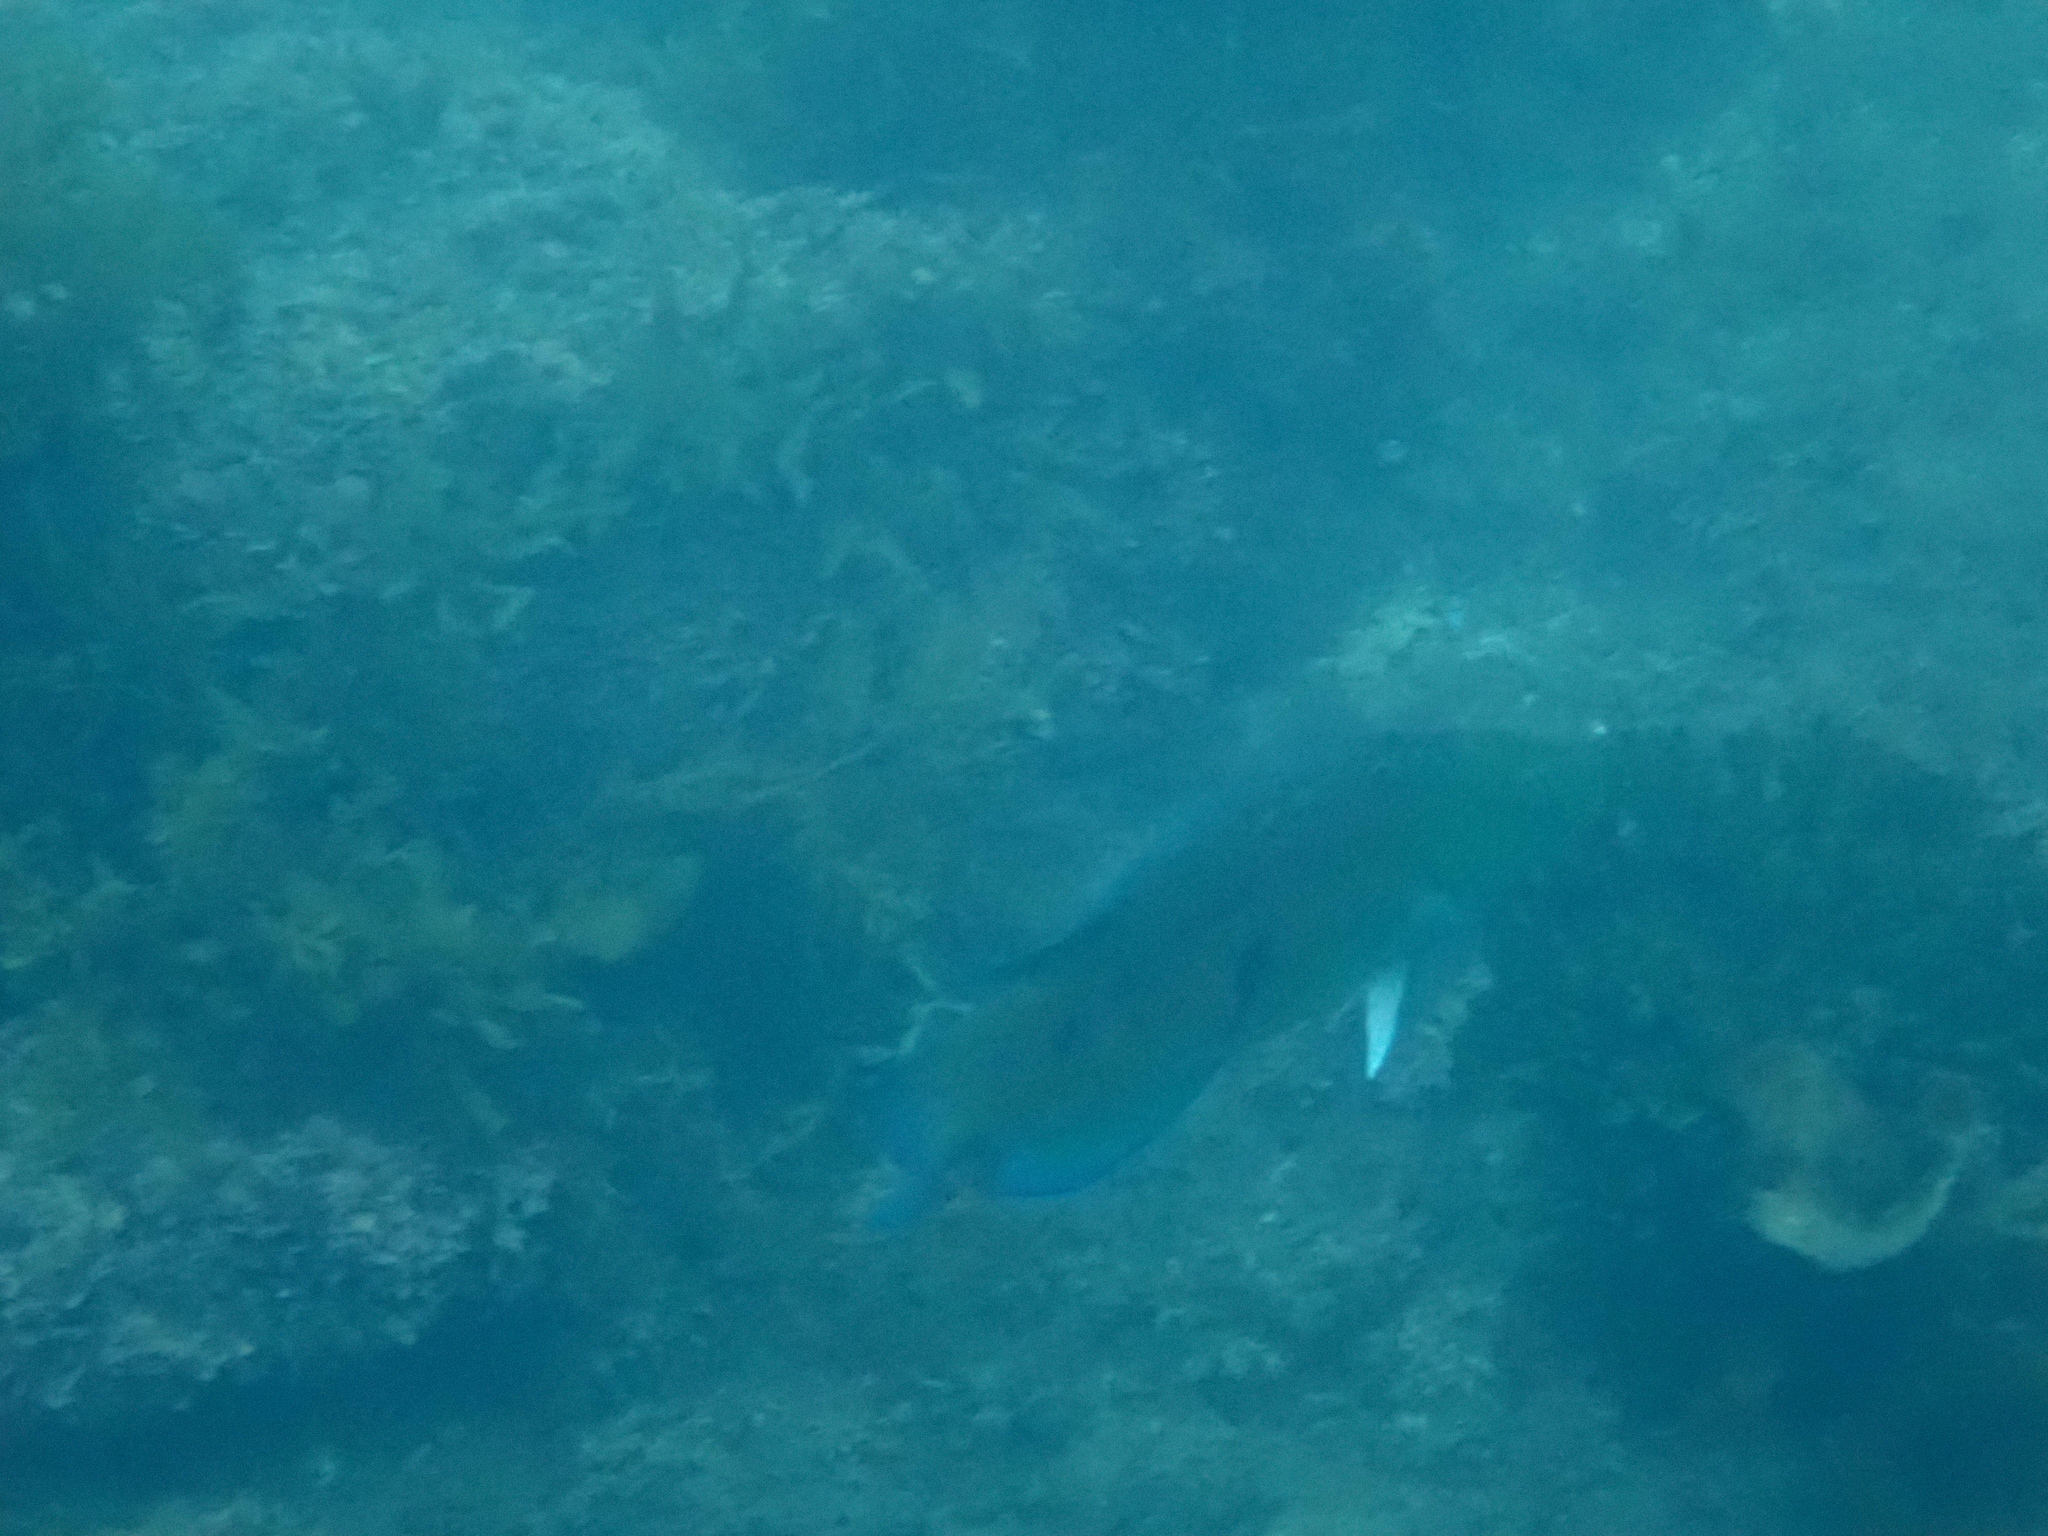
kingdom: Animalia
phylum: Chordata
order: Perciformes
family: Labridae
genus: Pictilabrus
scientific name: Pictilabrus laticlavius
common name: Patrician wrasse
